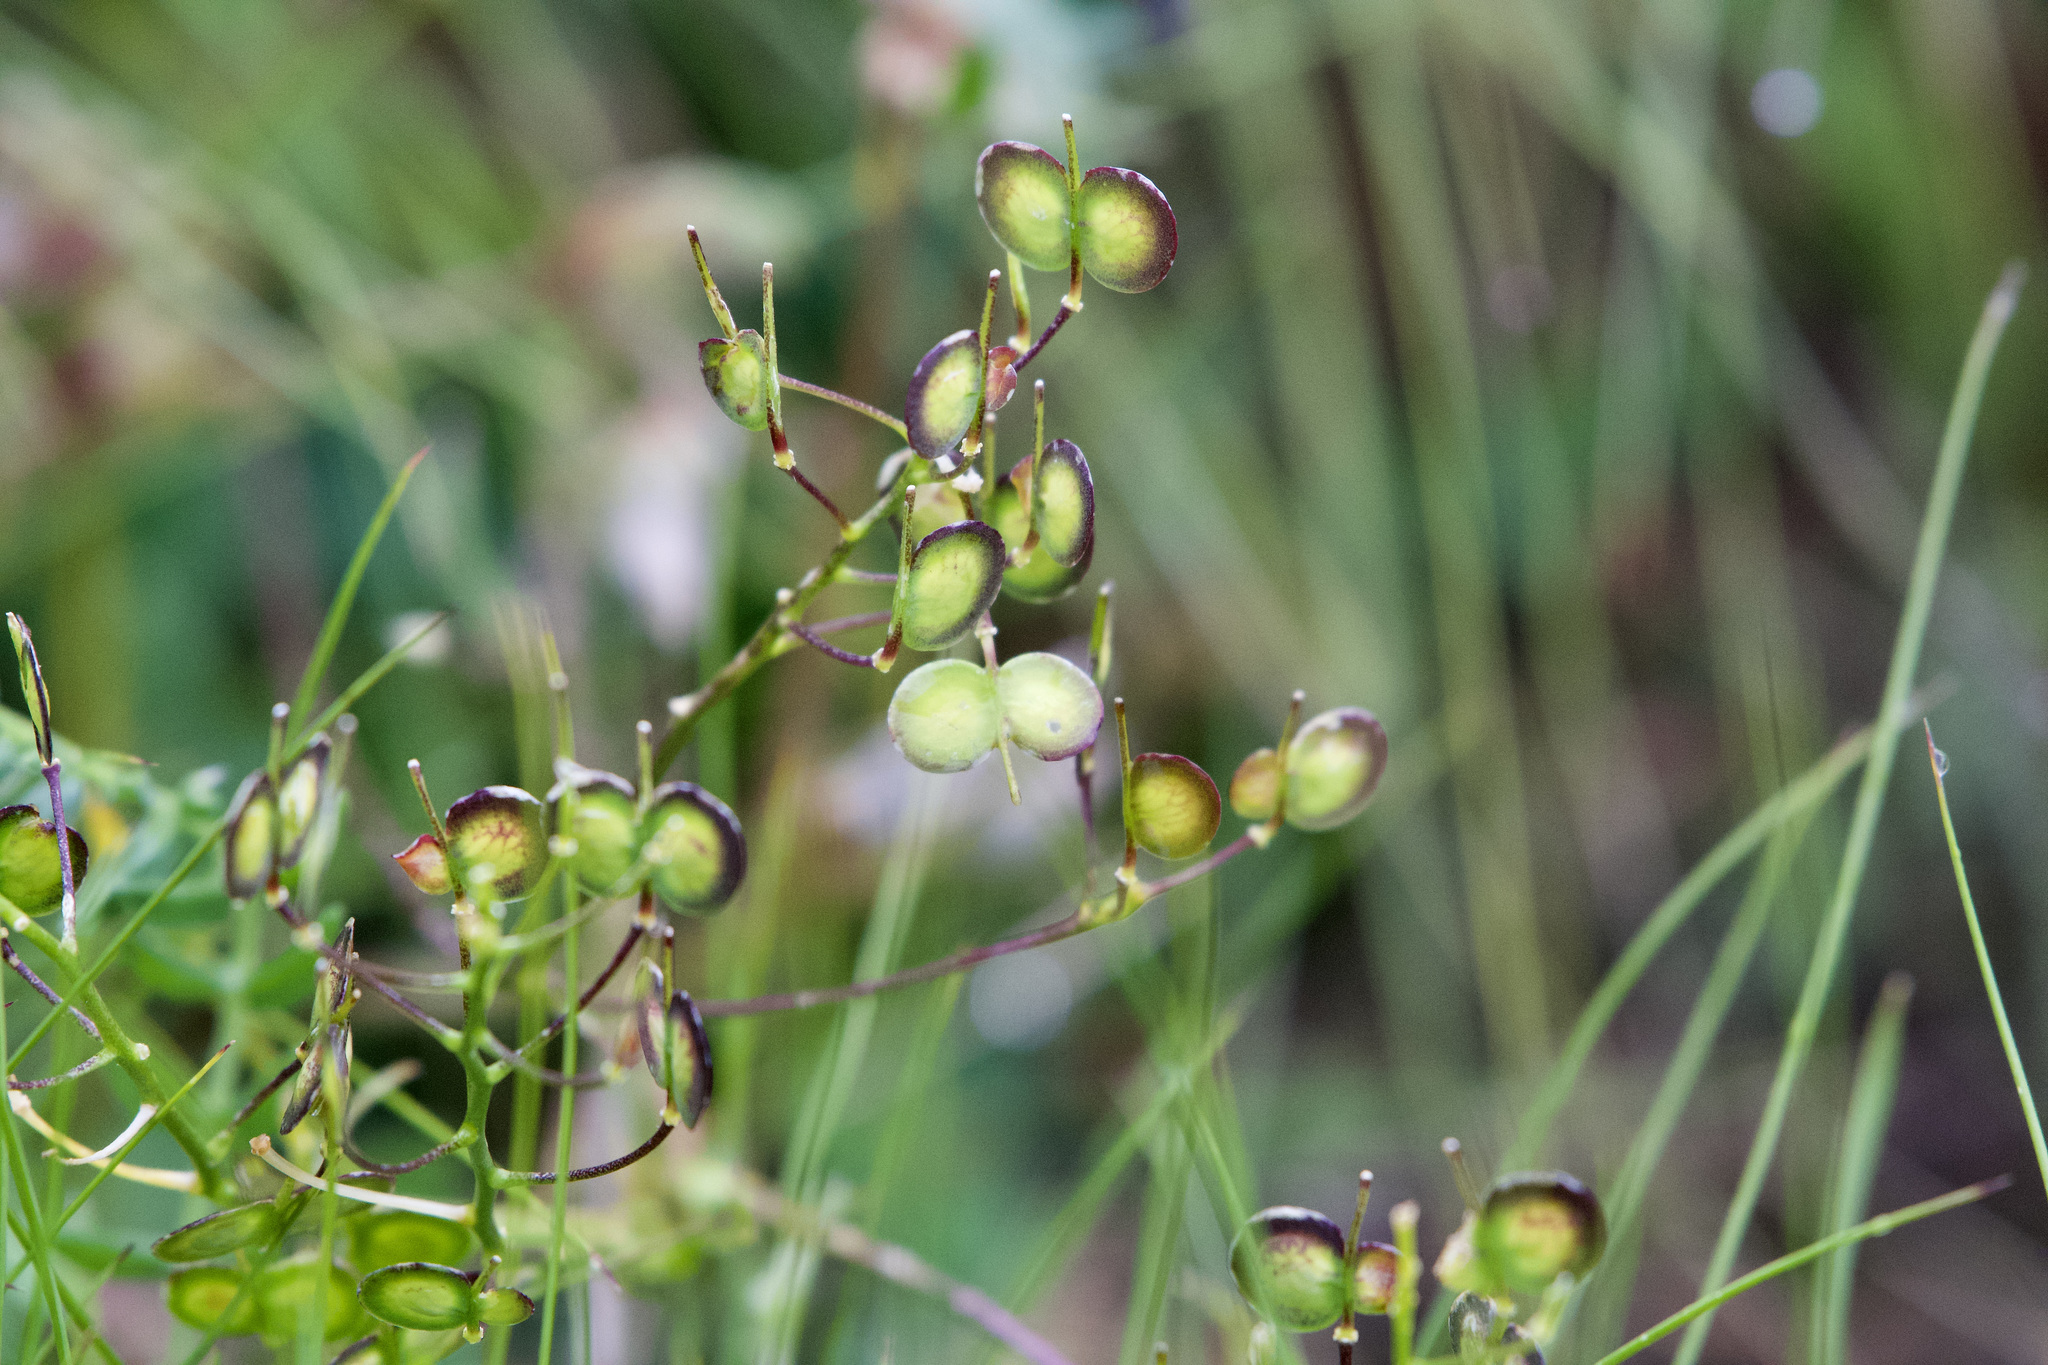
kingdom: Plantae
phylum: Tracheophyta
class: Magnoliopsida
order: Brassicales
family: Brassicaceae
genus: Biscutella
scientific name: Biscutella laevigata
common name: Buckler mustard
